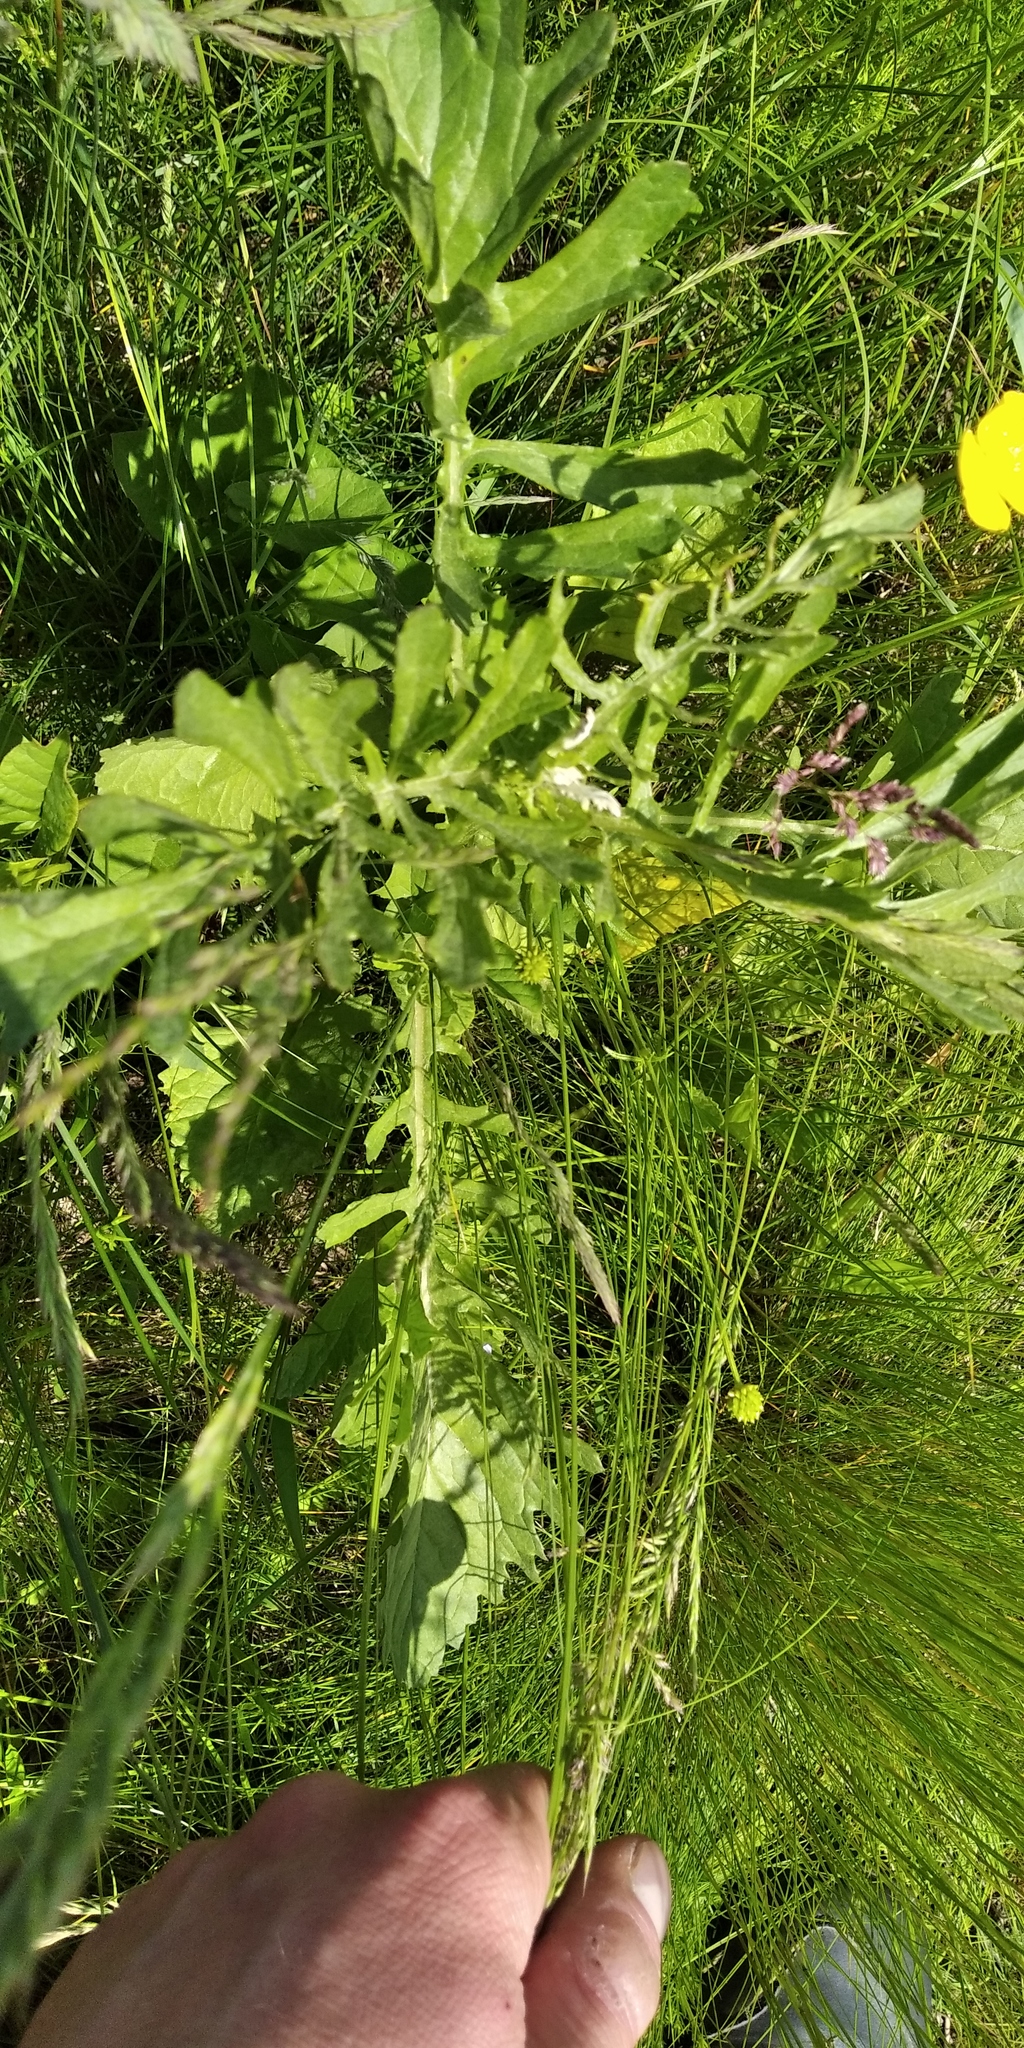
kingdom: Plantae
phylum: Tracheophyta
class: Magnoliopsida
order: Asterales
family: Asteraceae
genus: Jacobaea
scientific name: Jacobaea vulgaris
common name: Stinking willie
